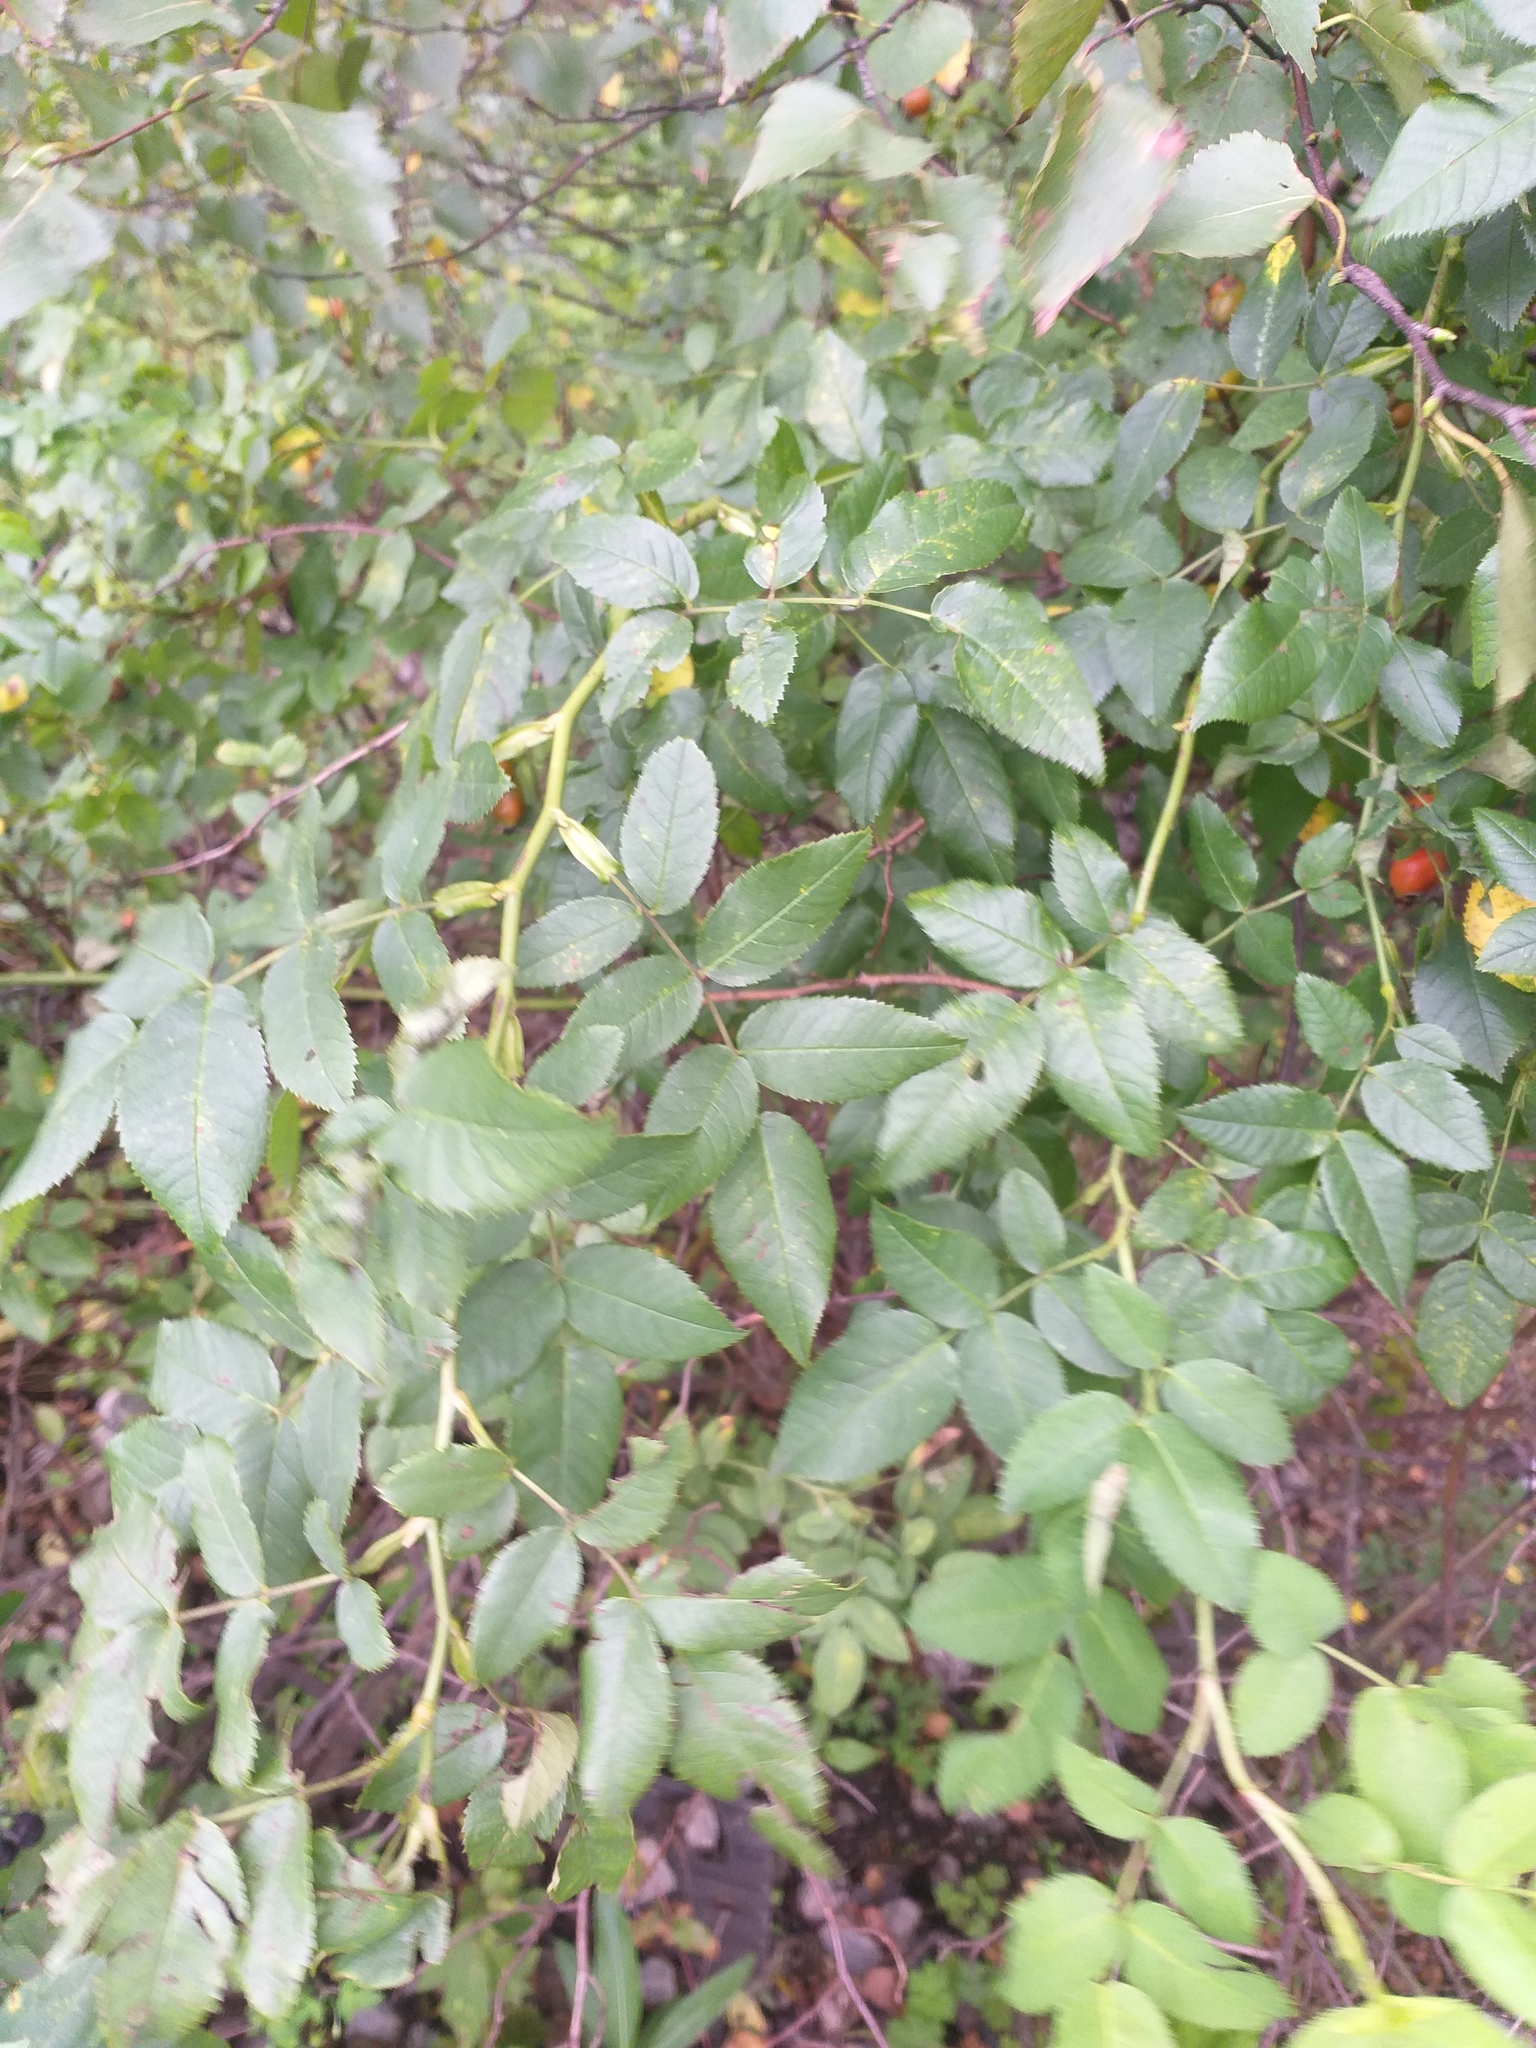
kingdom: Plantae
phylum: Tracheophyta
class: Magnoliopsida
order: Rosales
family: Rosaceae
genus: Rosa
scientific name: Rosa canina
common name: Dog rose
